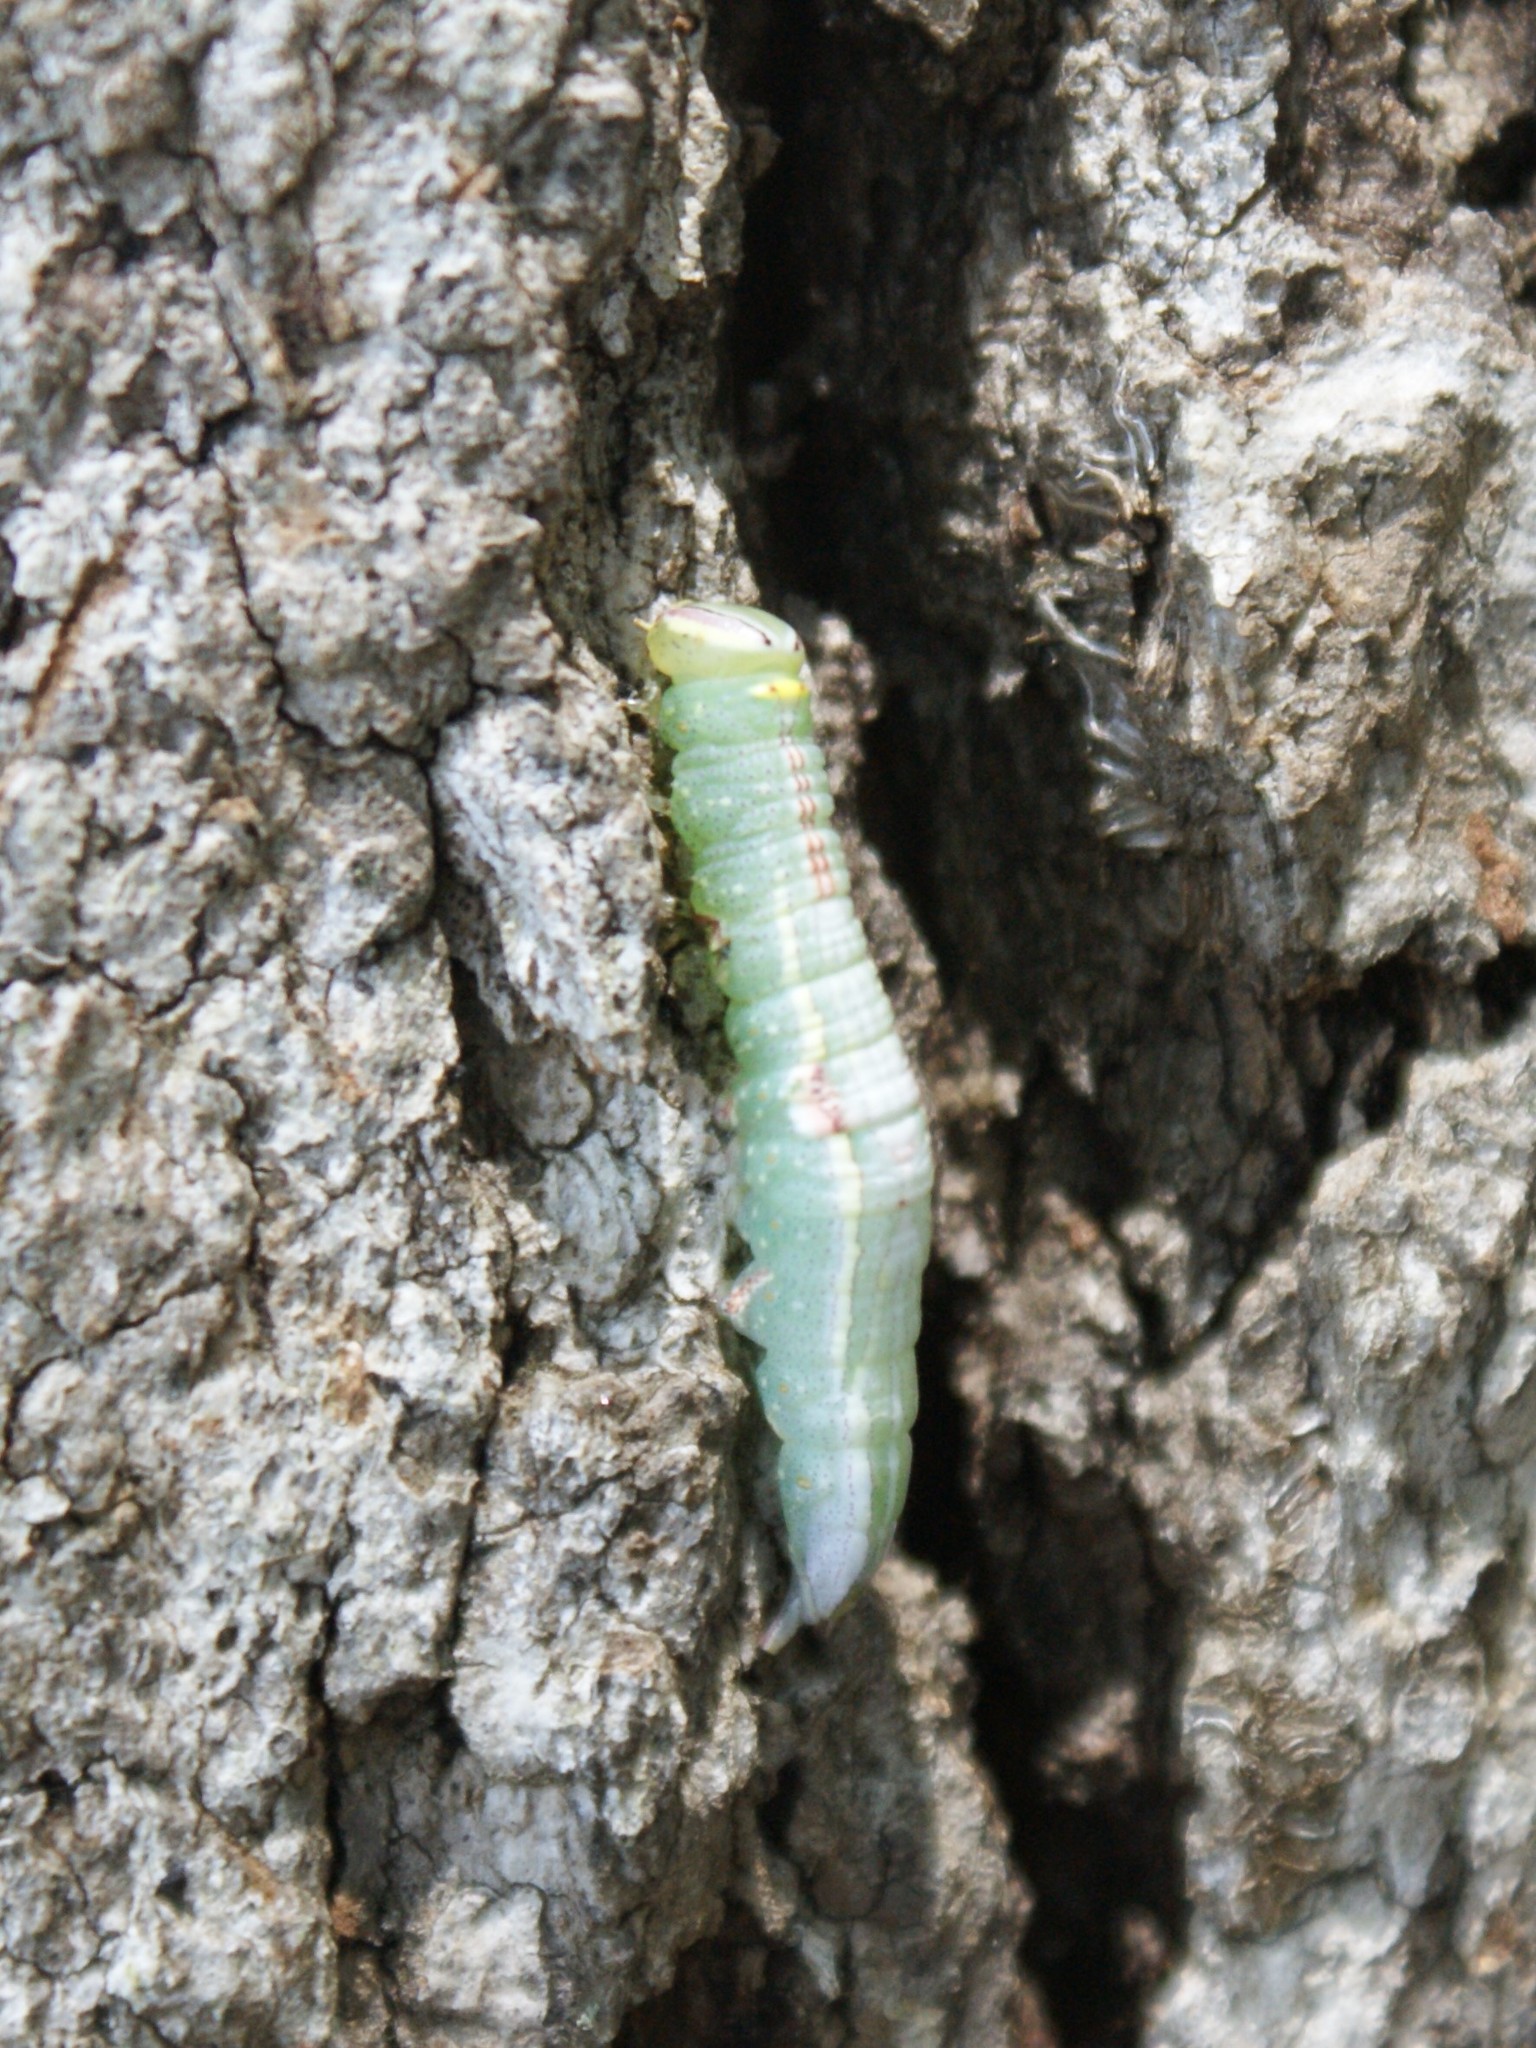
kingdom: Animalia
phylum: Arthropoda
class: Insecta
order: Lepidoptera
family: Notodontidae
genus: Disphragis
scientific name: Disphragis Cecrita guttivitta
